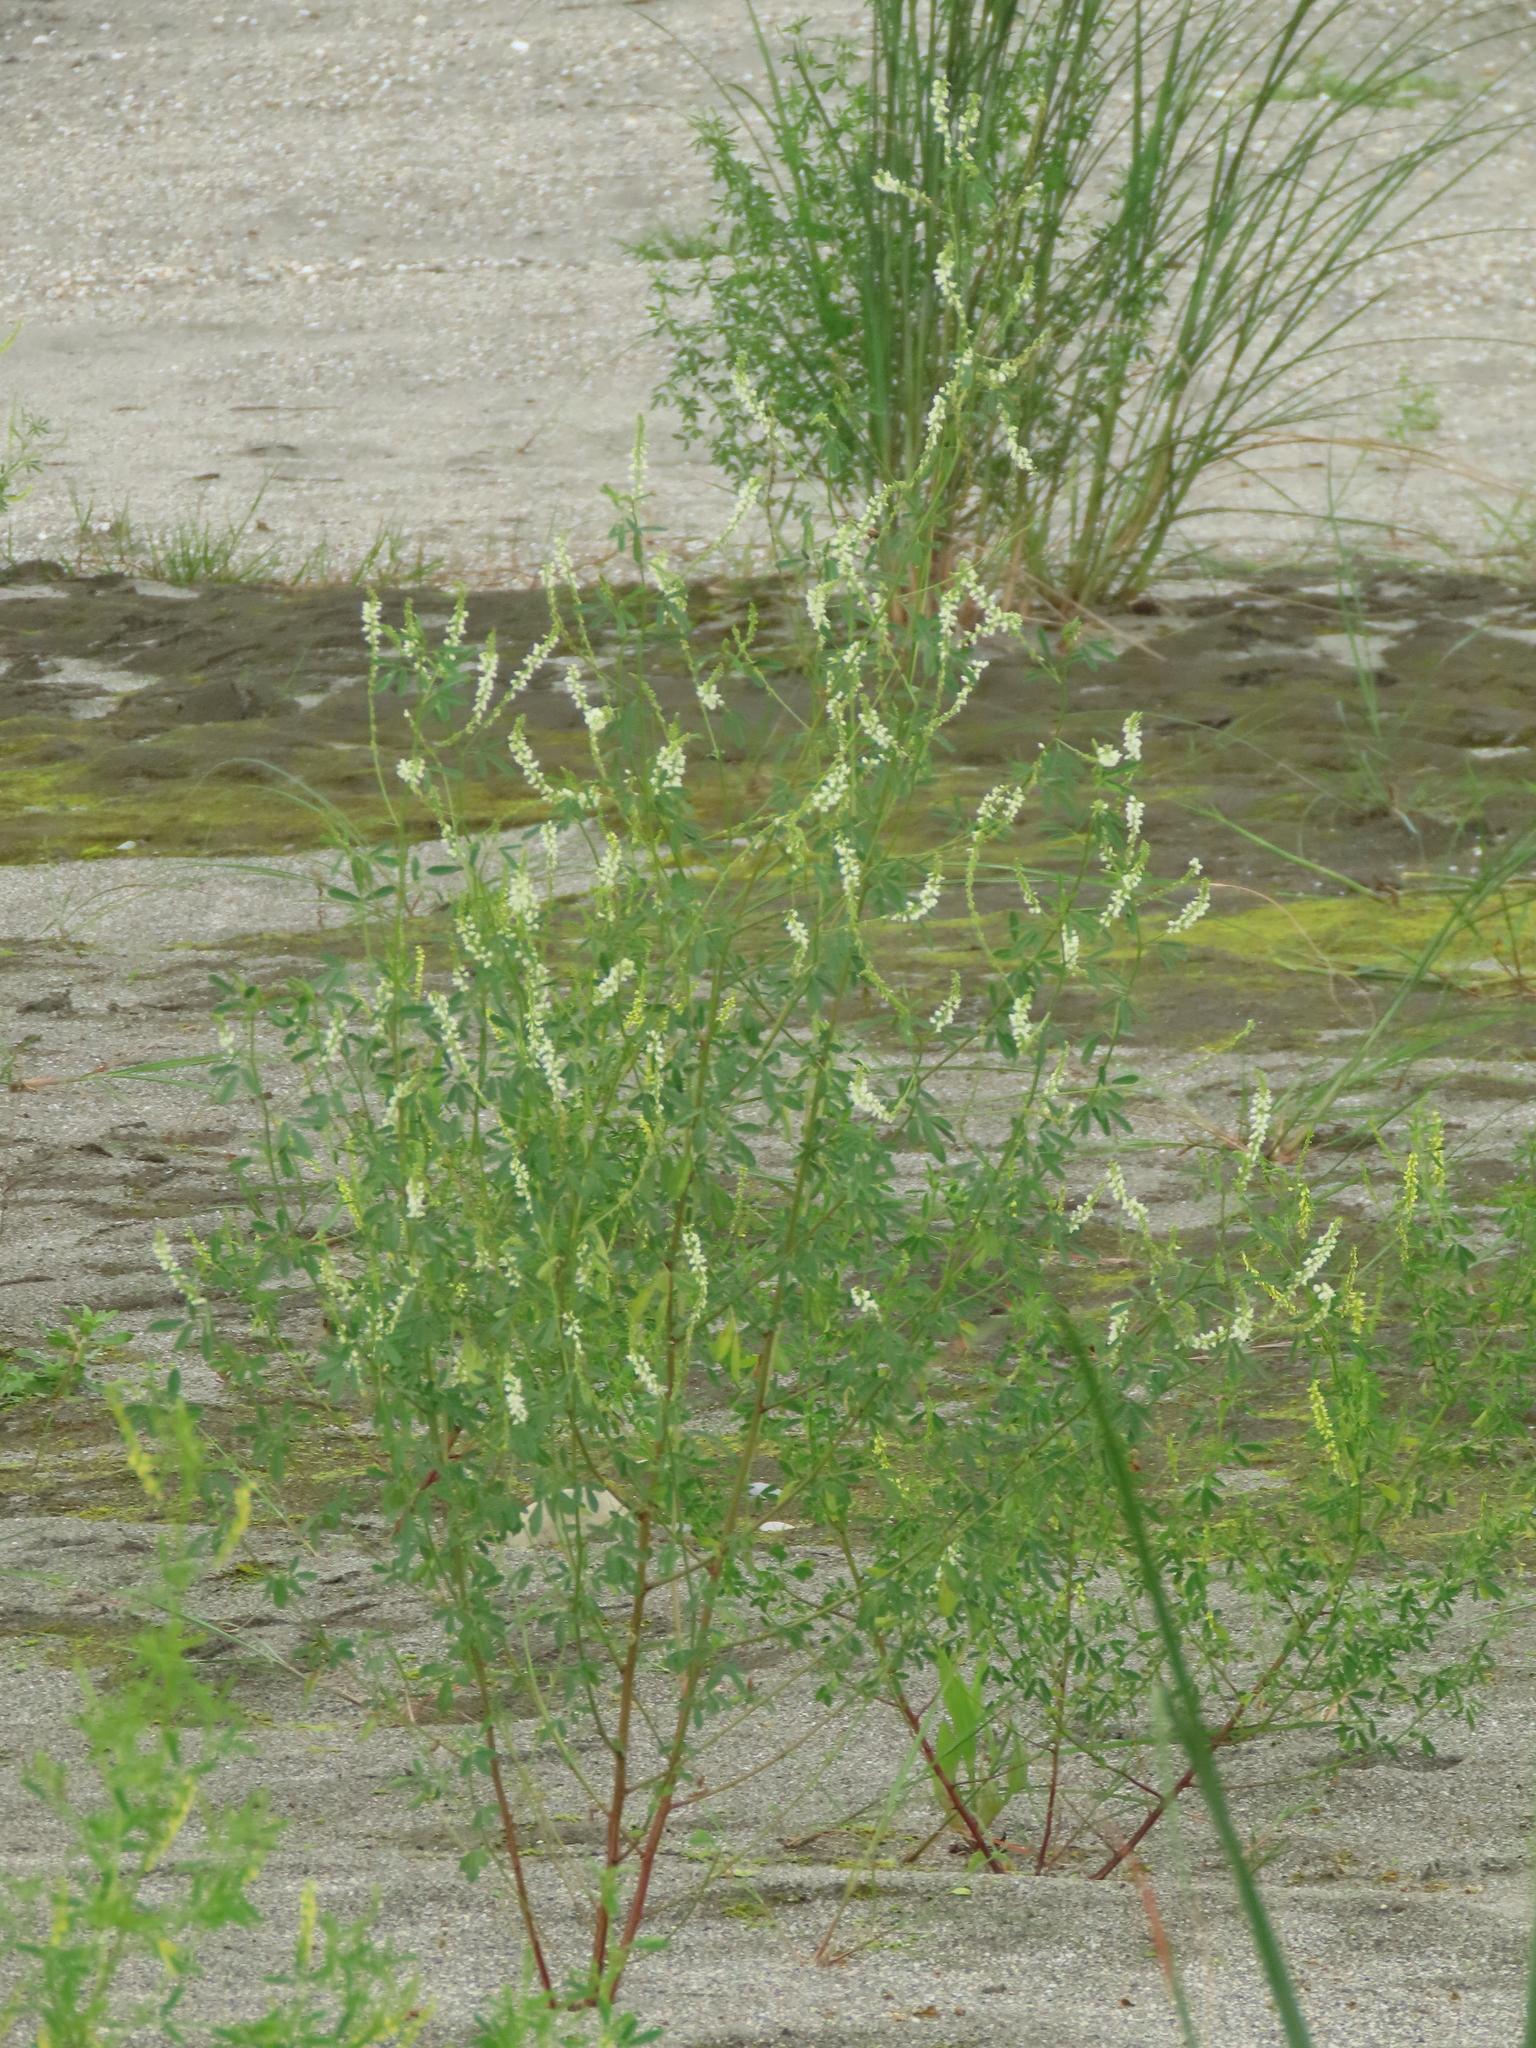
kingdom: Plantae
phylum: Tracheophyta
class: Magnoliopsida
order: Fabales
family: Fabaceae
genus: Melilotus
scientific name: Melilotus albus
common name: White melilot
